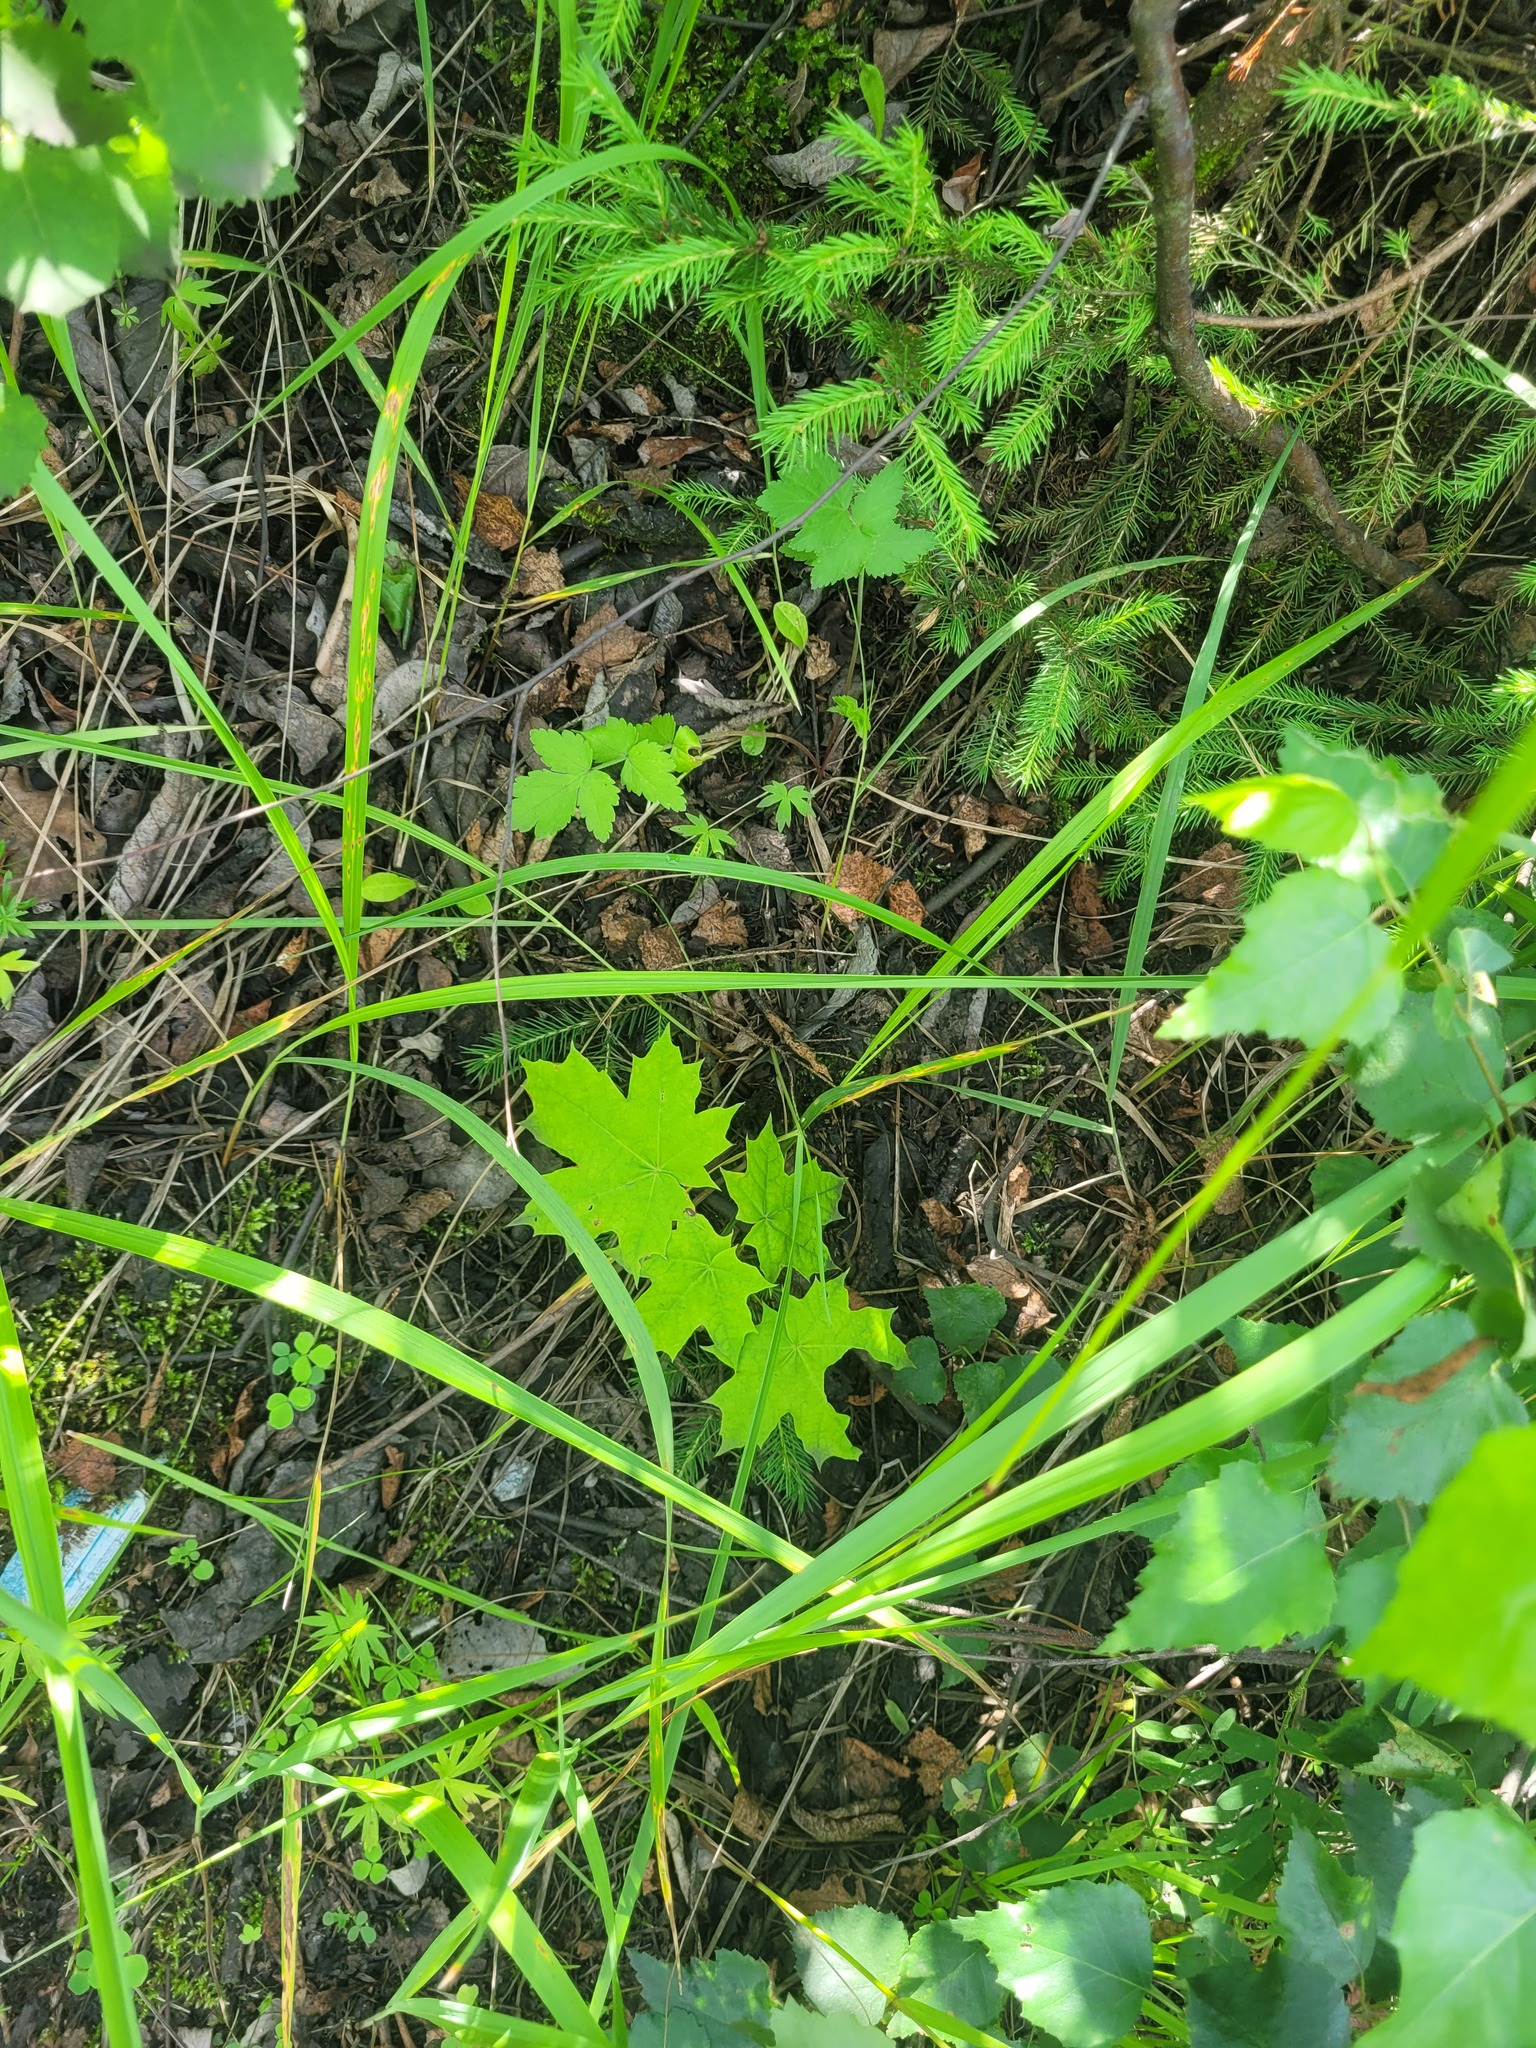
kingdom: Plantae
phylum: Tracheophyta
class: Magnoliopsida
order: Sapindales
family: Sapindaceae
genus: Acer
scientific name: Acer platanoides
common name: Norway maple
